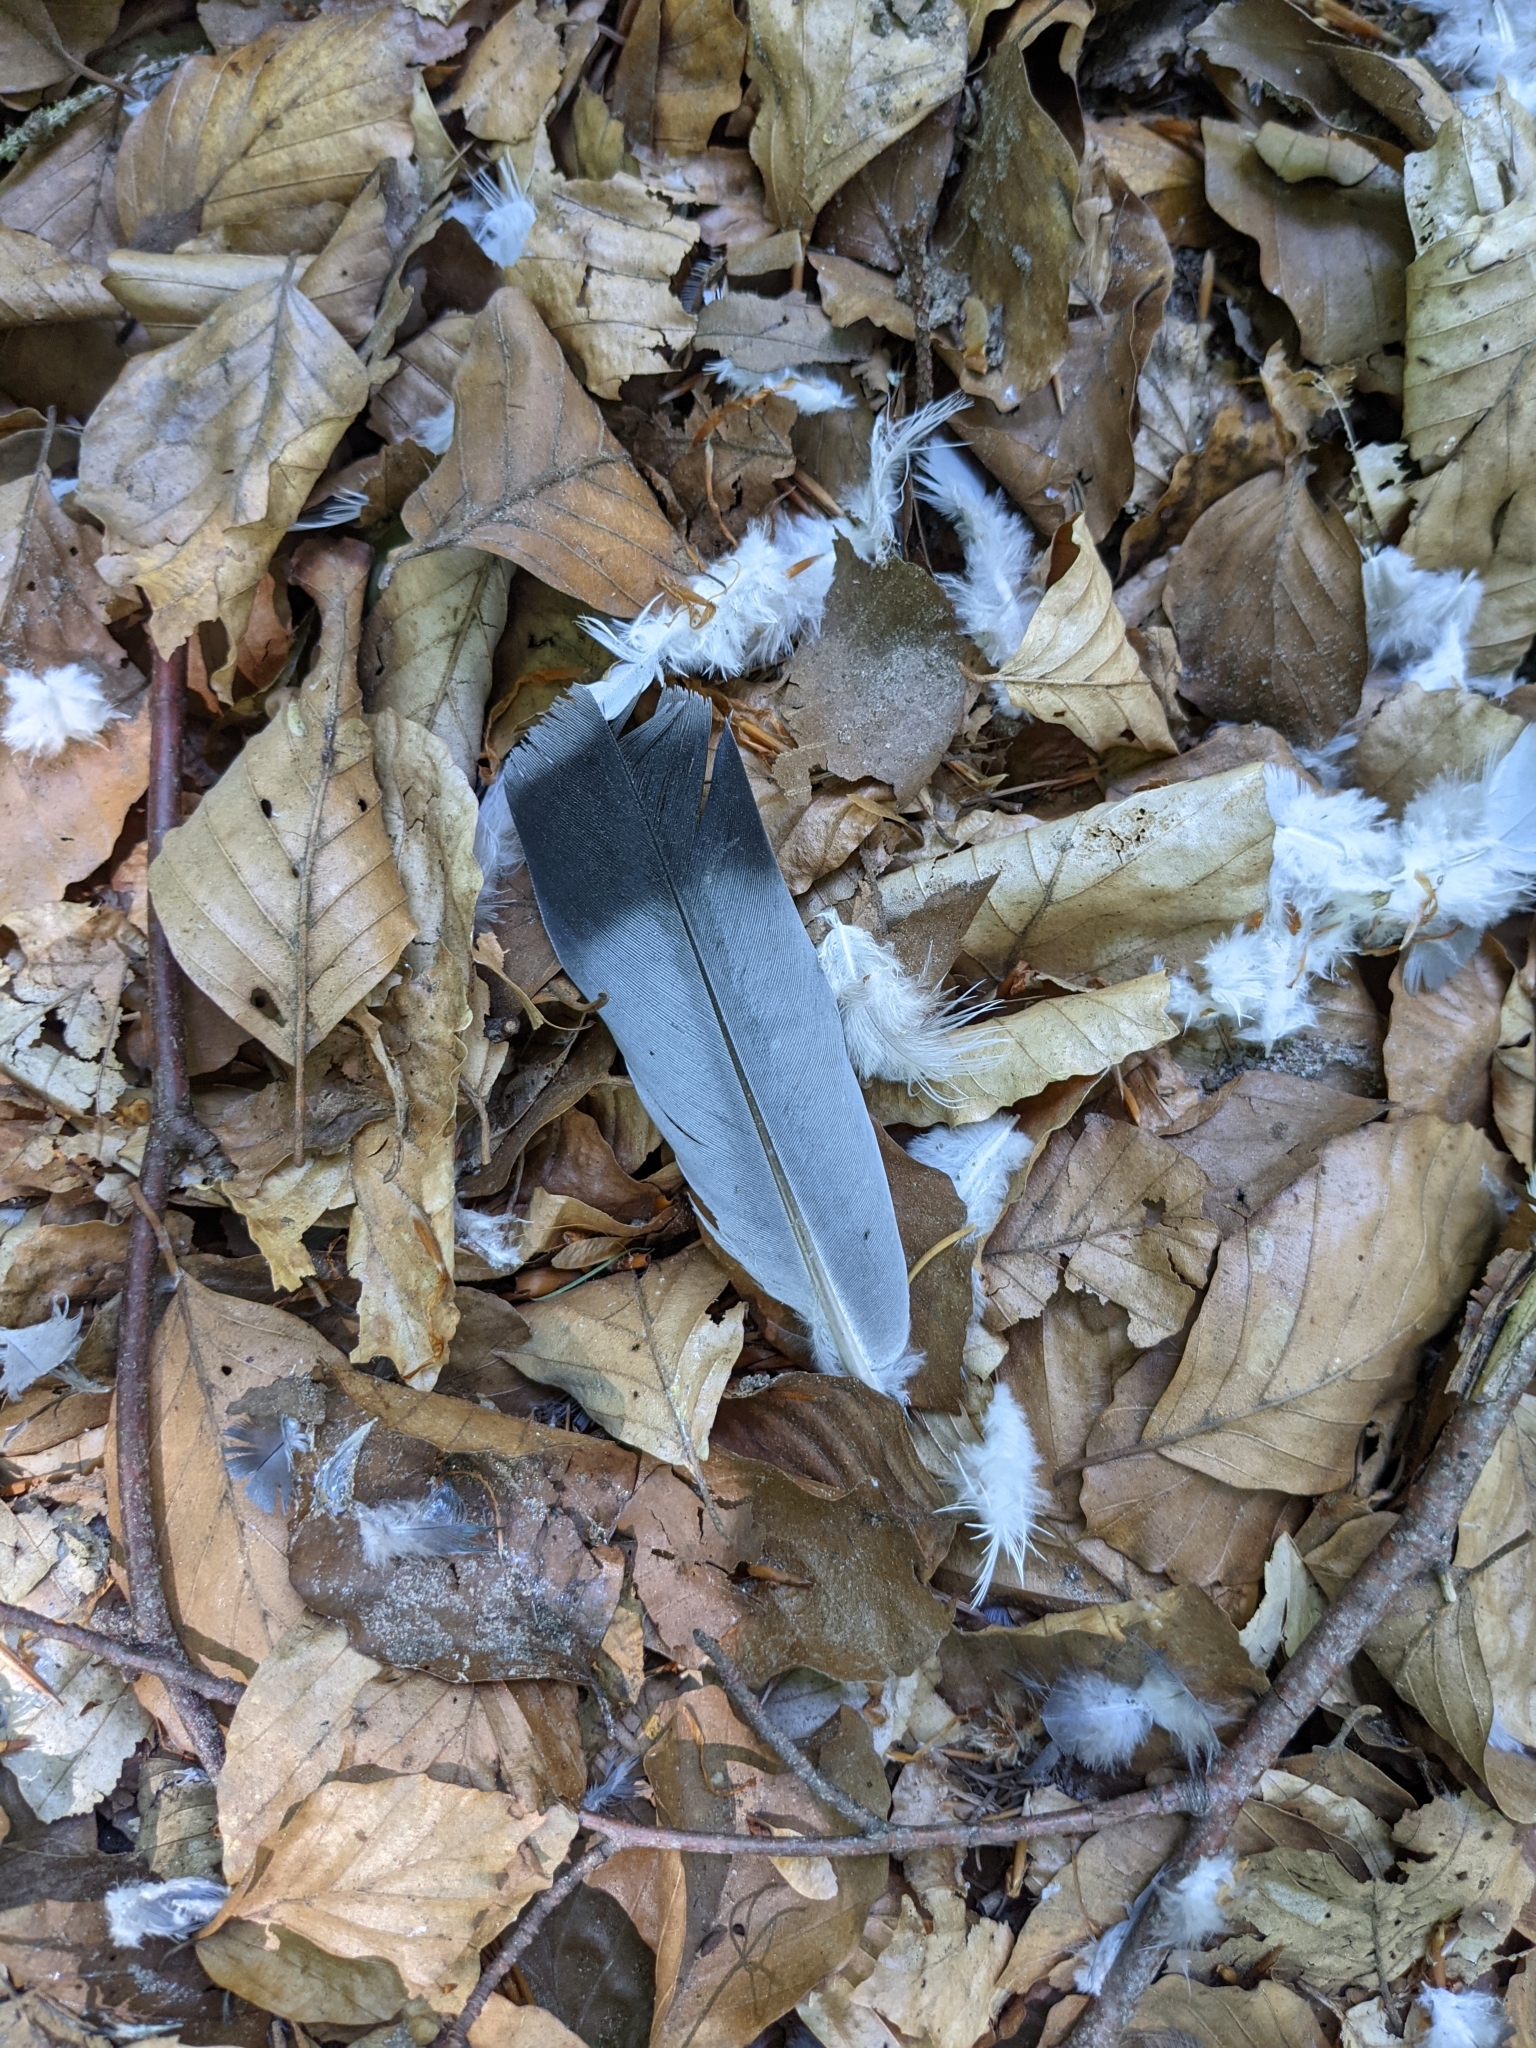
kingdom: Animalia
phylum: Chordata
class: Aves
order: Columbiformes
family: Columbidae
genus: Columba
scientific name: Columba livia
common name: Rock pigeon
